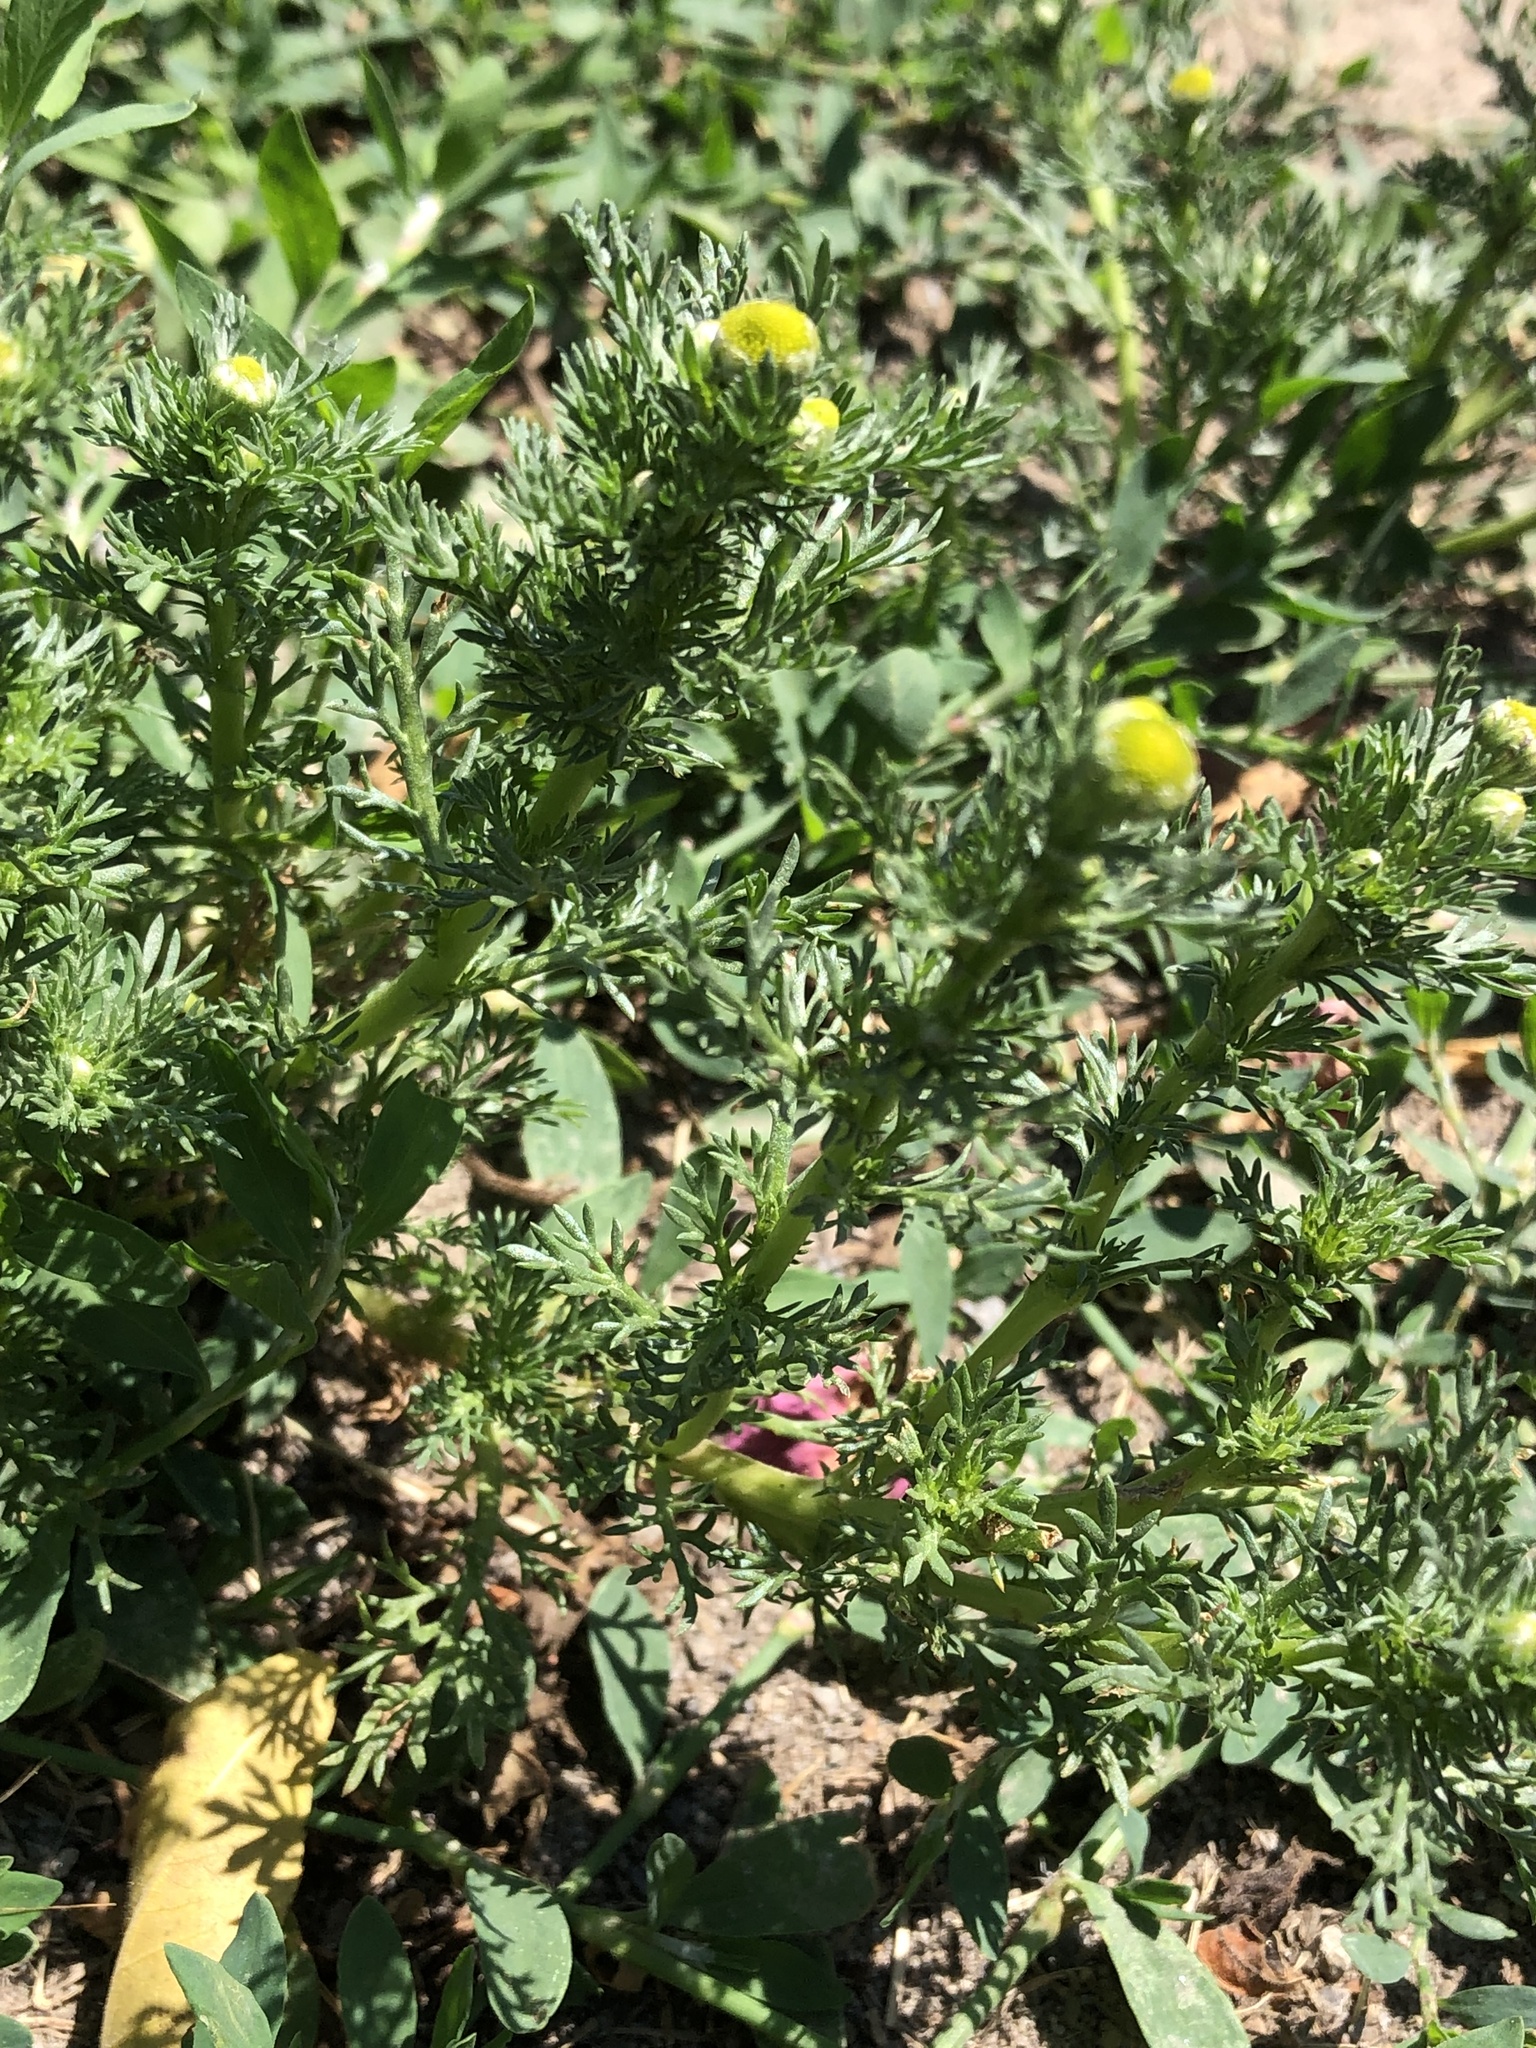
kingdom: Plantae
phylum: Tracheophyta
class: Magnoliopsida
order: Asterales
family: Asteraceae
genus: Matricaria
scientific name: Matricaria discoidea
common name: Disc mayweed
